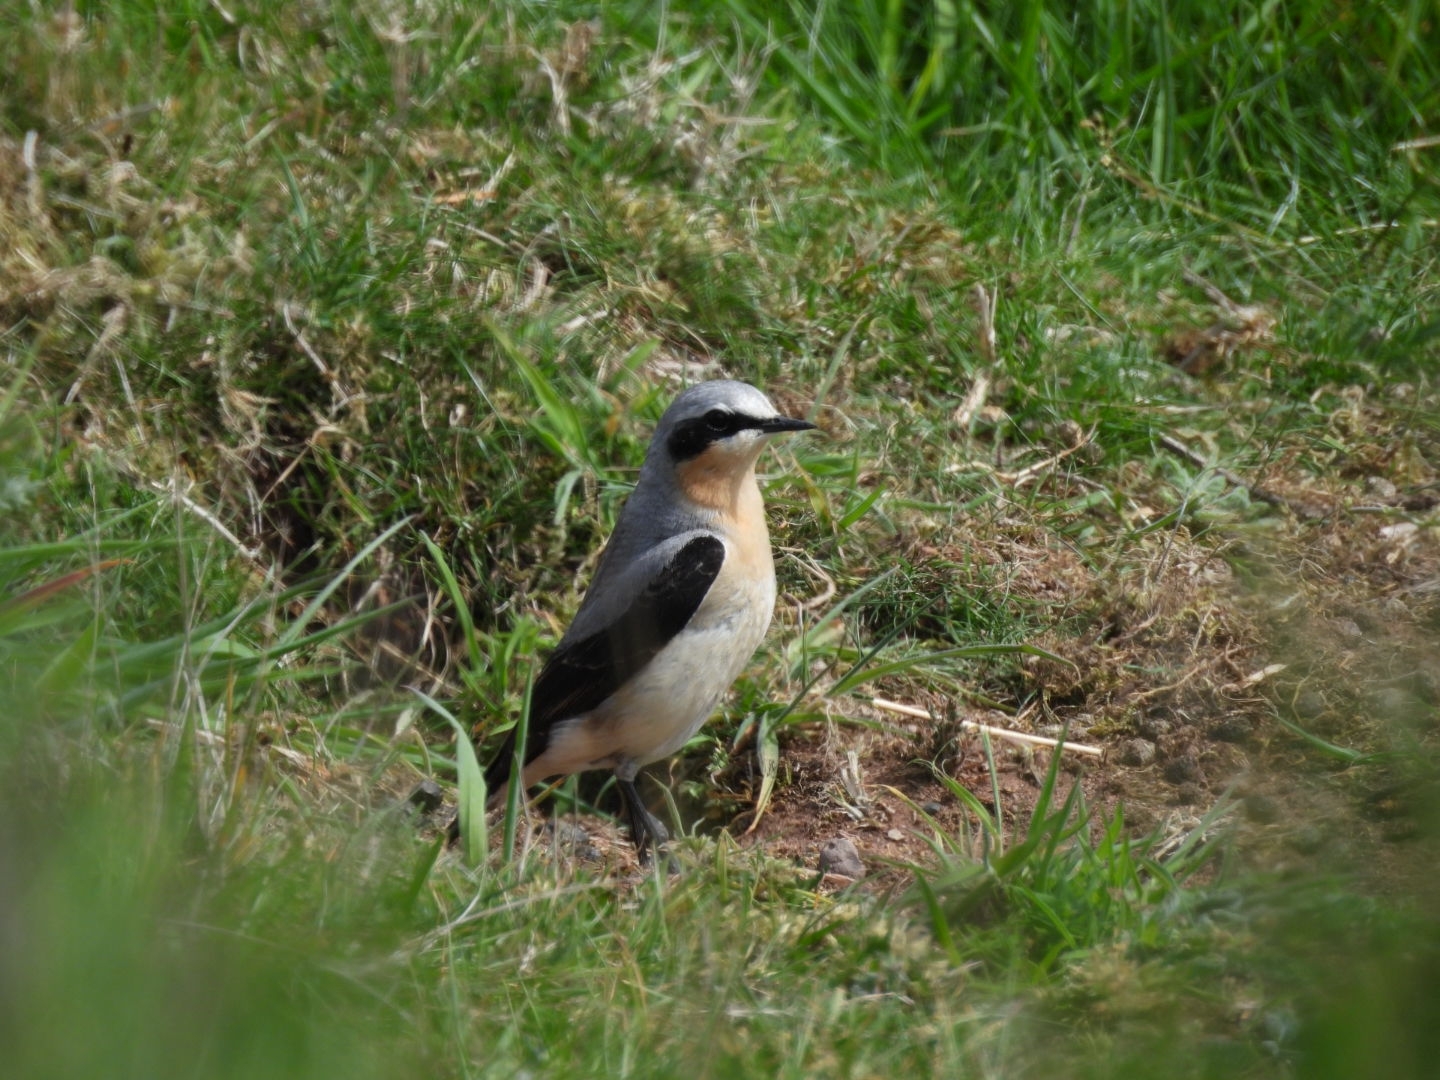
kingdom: Animalia
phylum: Chordata
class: Aves
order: Passeriformes
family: Muscicapidae
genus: Oenanthe
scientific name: Oenanthe oenanthe
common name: Northern wheatear
